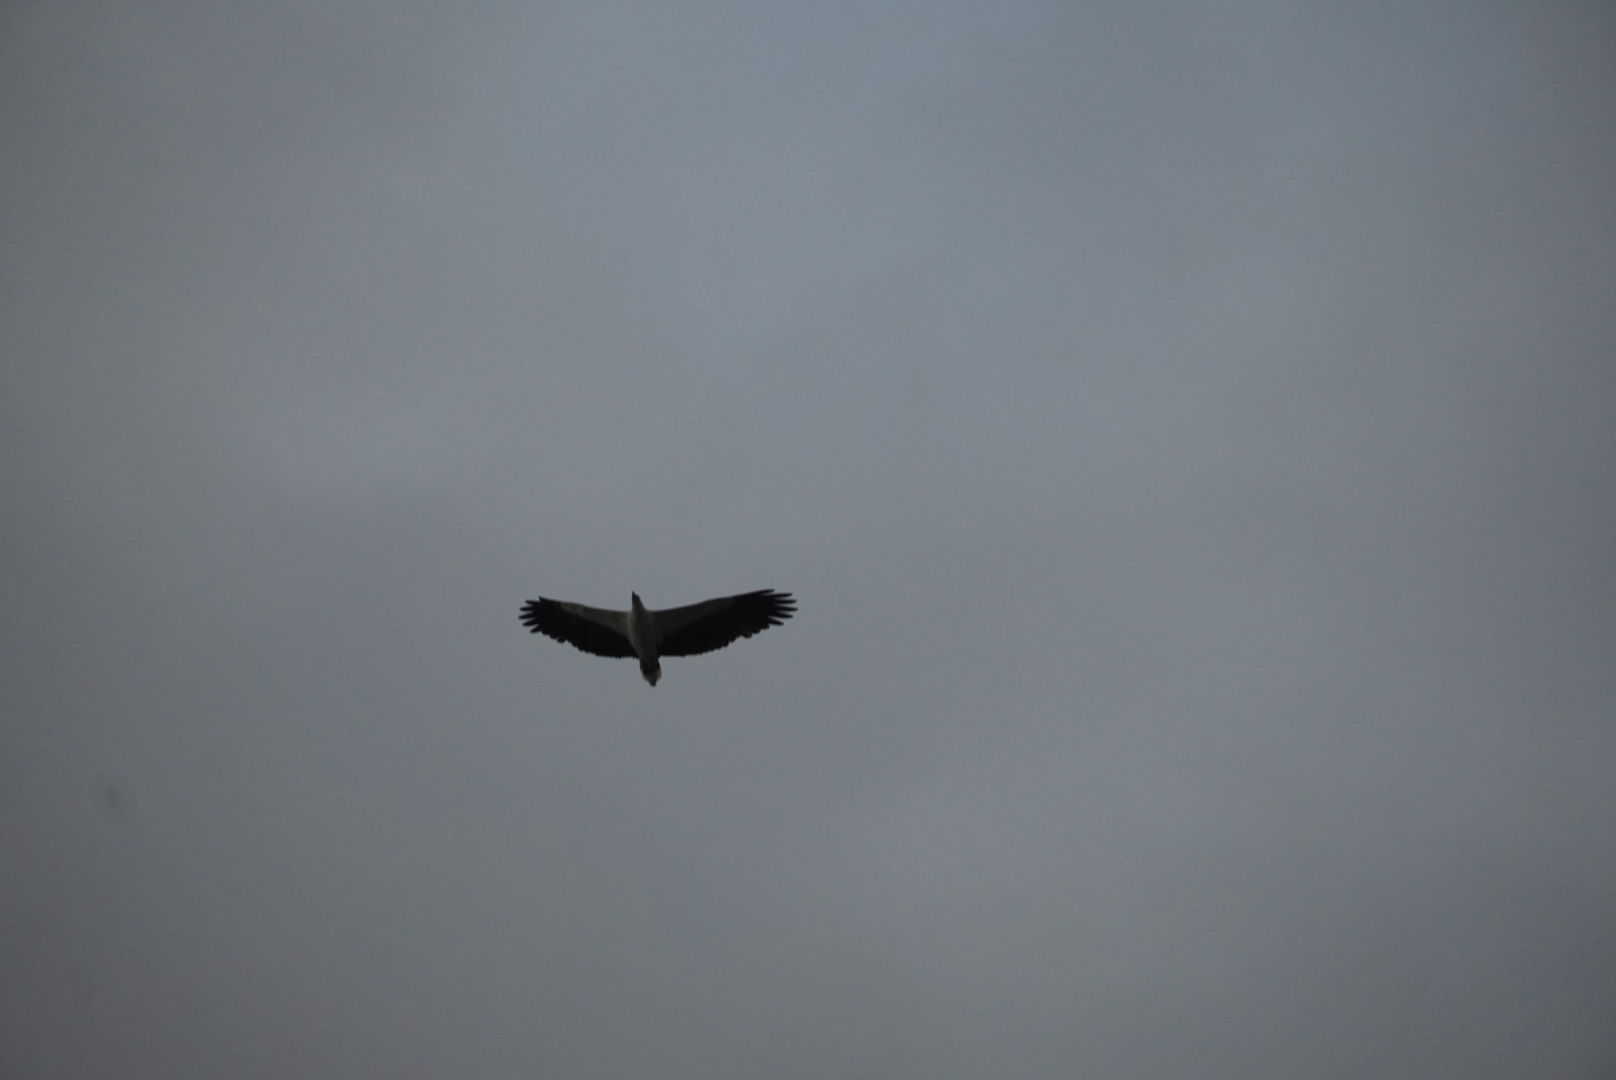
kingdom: Animalia
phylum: Chordata
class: Aves
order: Accipitriformes
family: Accipitridae
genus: Haliaeetus
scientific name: Haliaeetus leucogaster
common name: White-bellied sea eagle
